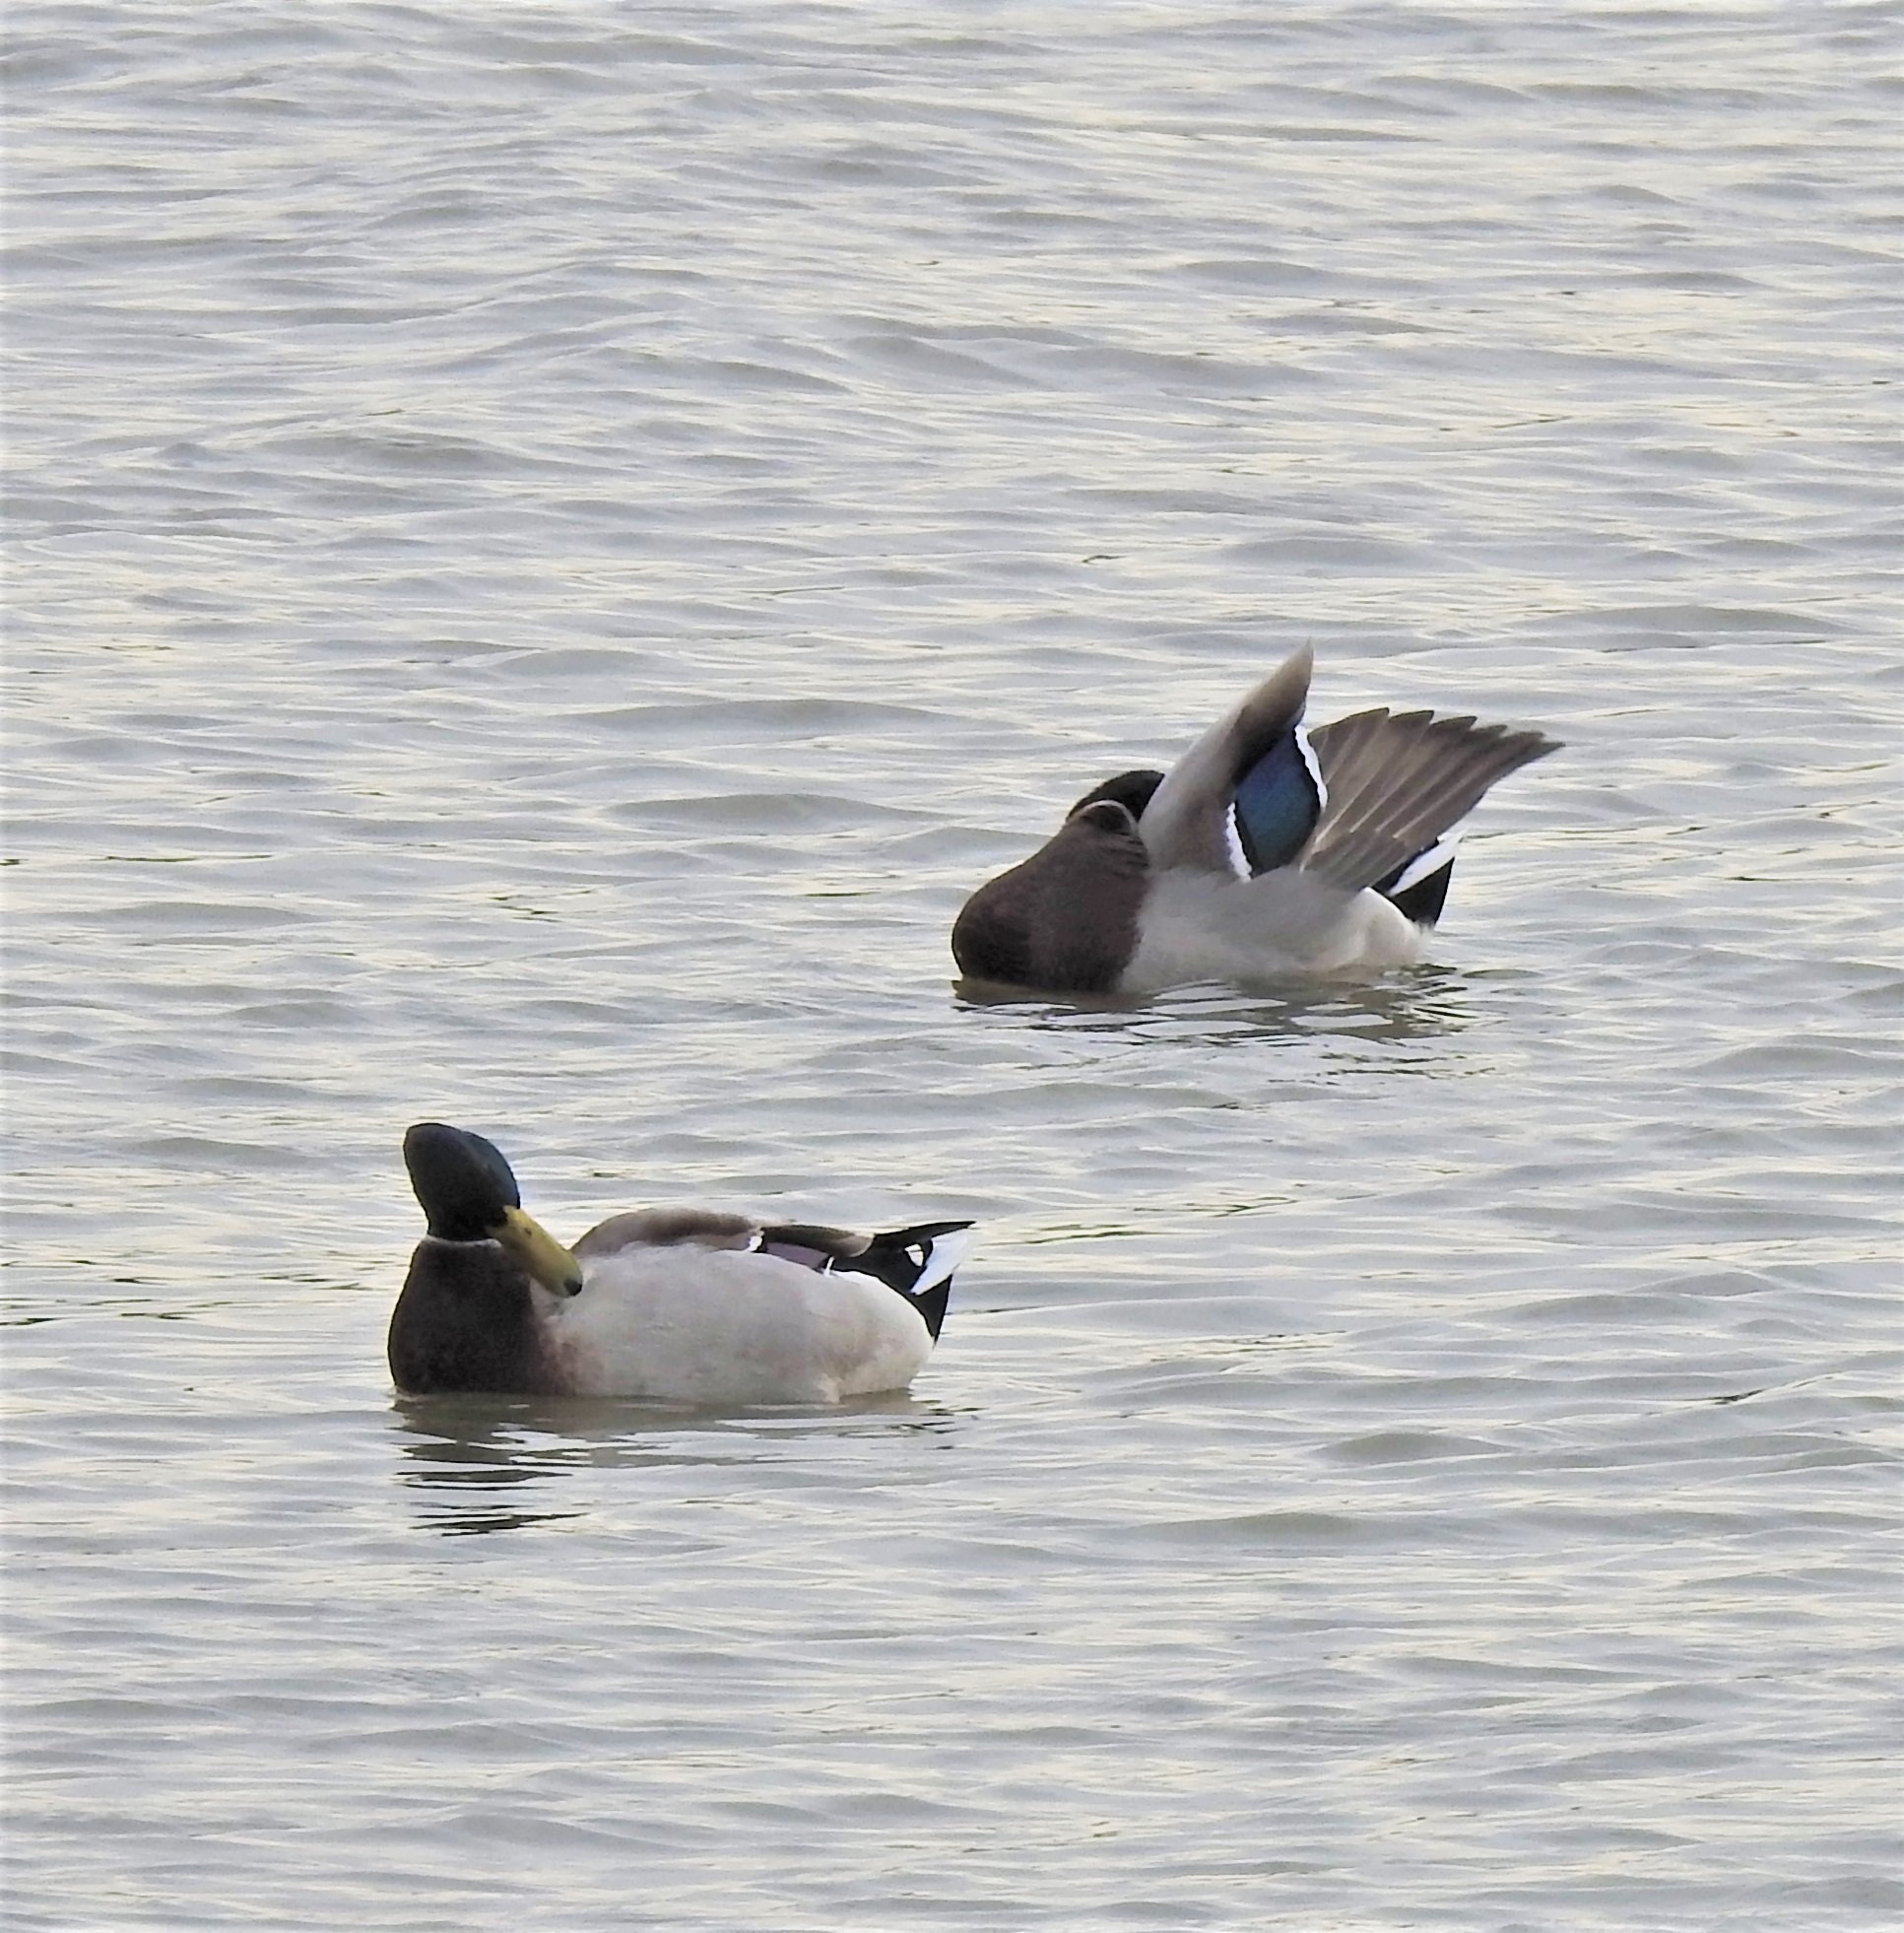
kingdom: Animalia
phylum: Chordata
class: Aves
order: Anseriformes
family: Anatidae
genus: Anas
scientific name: Anas platyrhynchos
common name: Mallard
